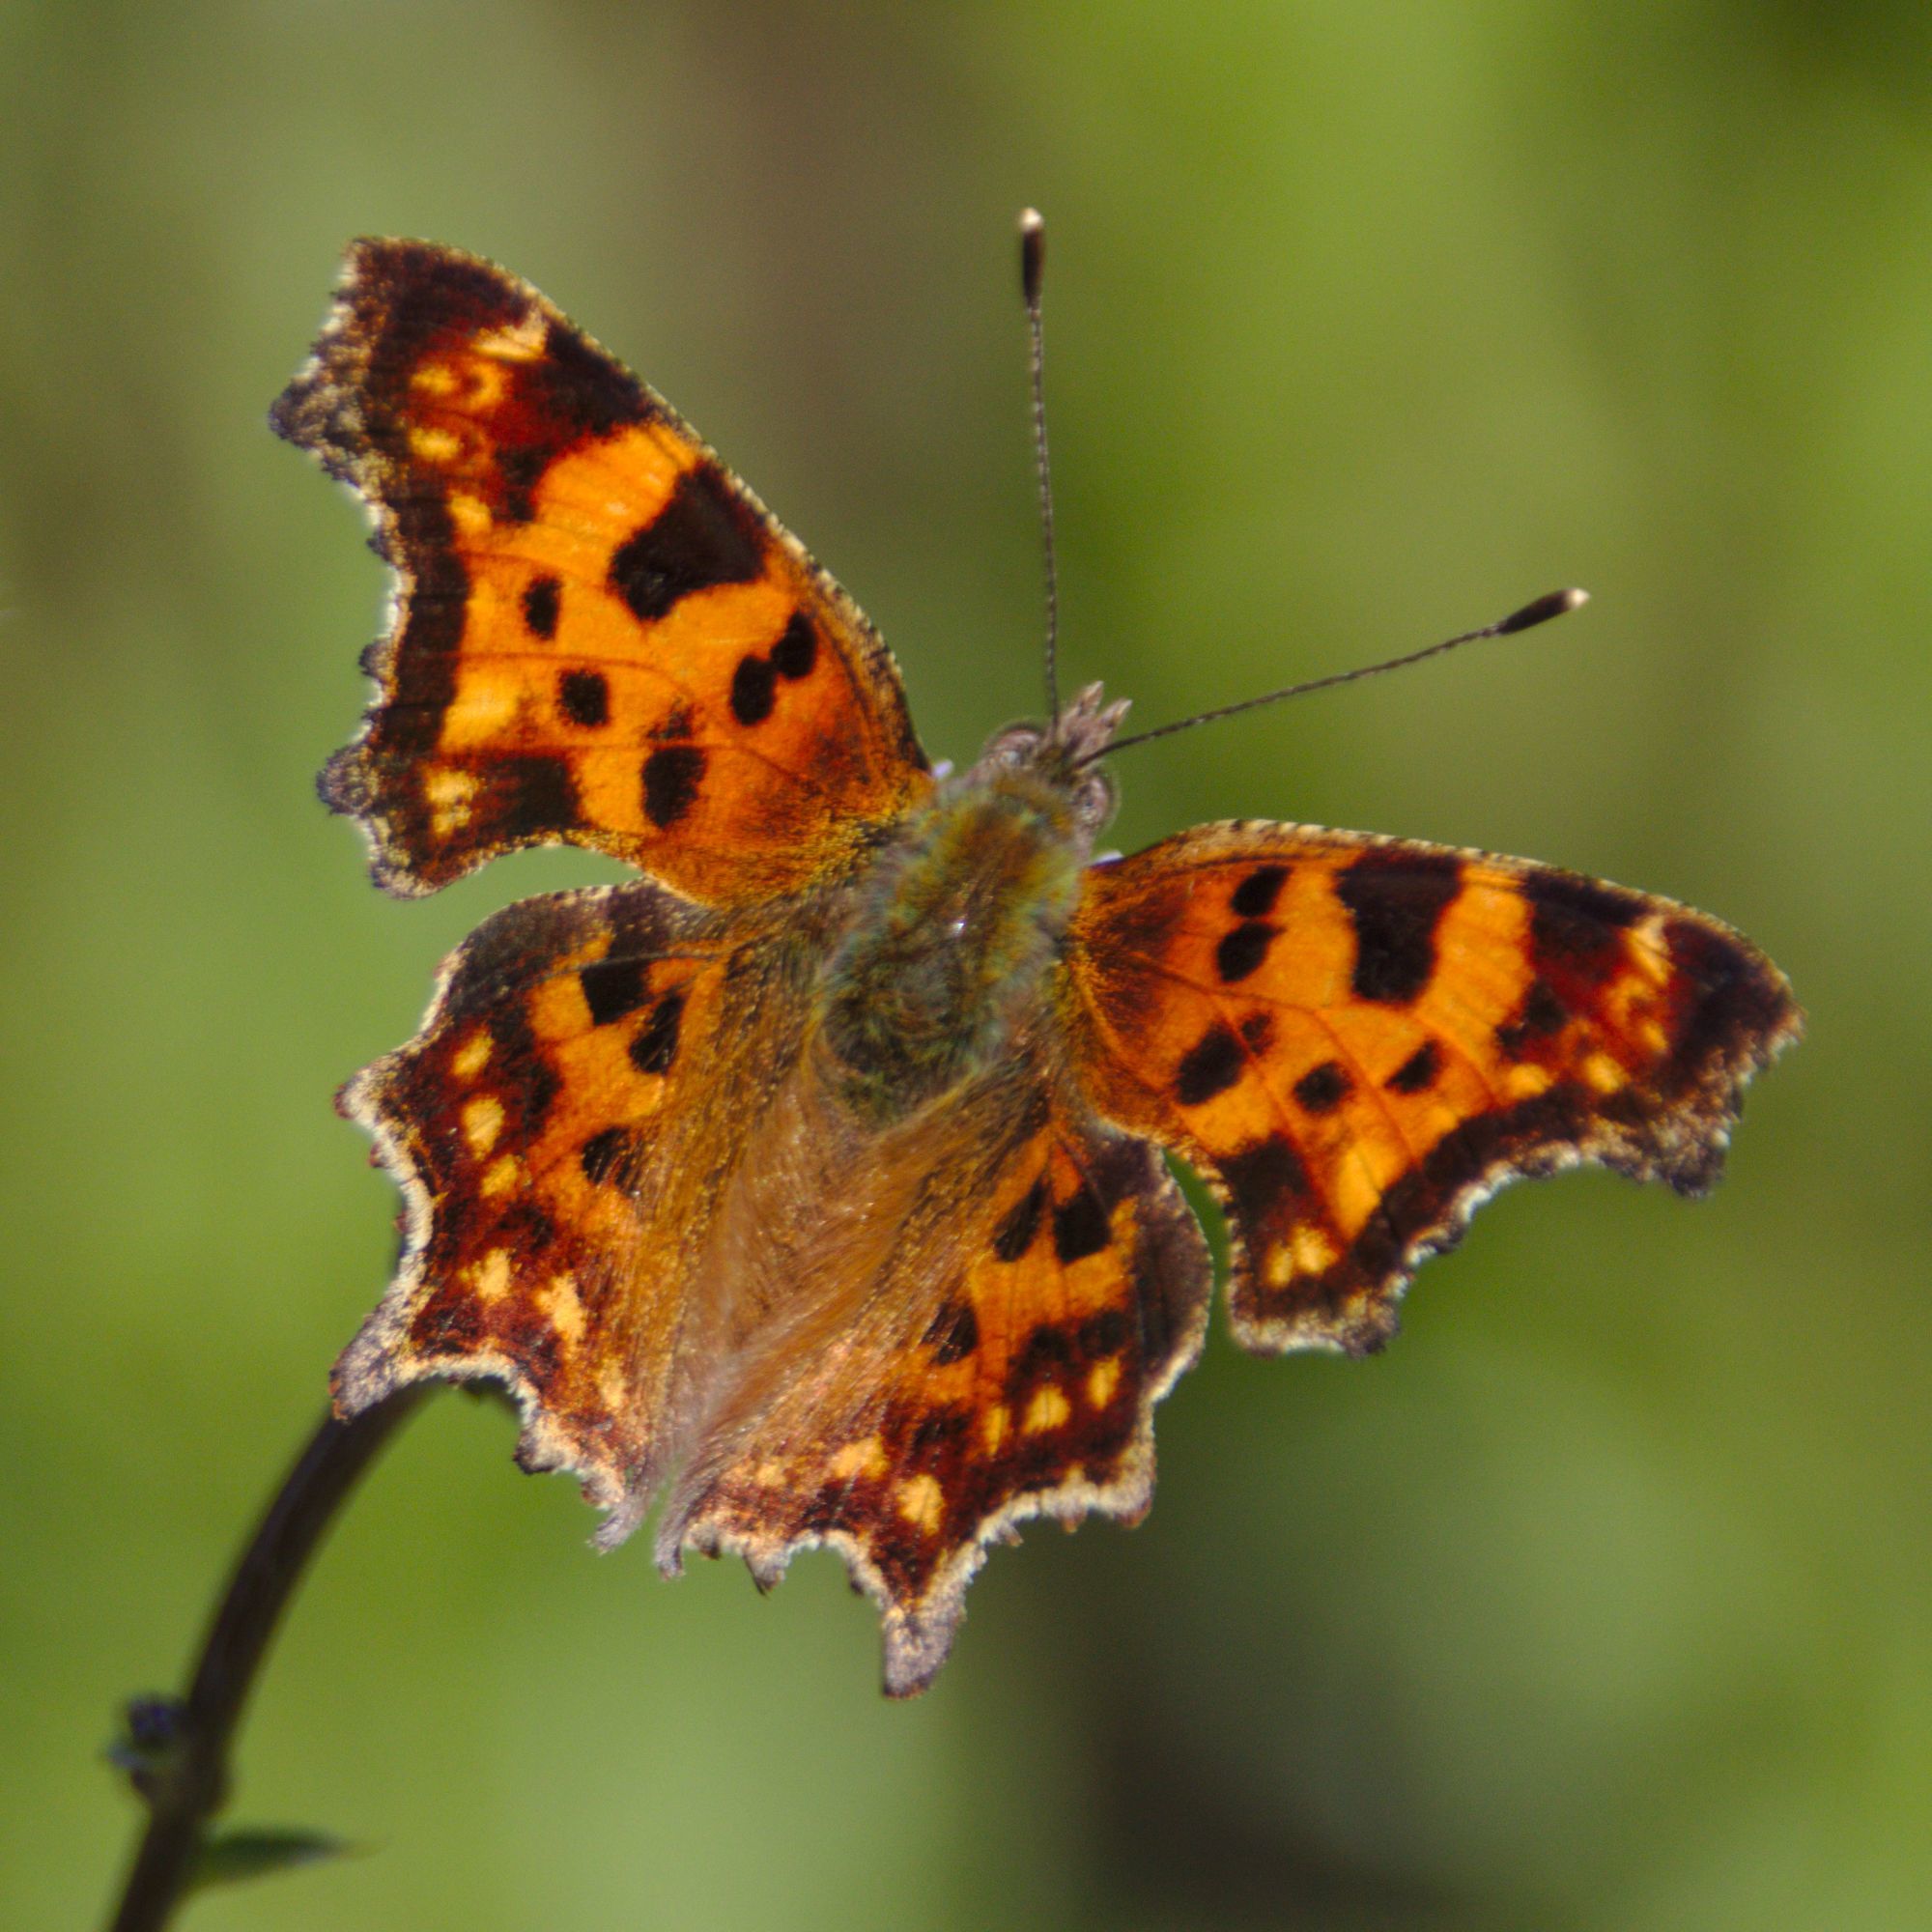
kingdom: Animalia
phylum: Arthropoda
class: Insecta
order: Lepidoptera
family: Nymphalidae
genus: Polygonia
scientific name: Polygonia c-album
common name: Comma
